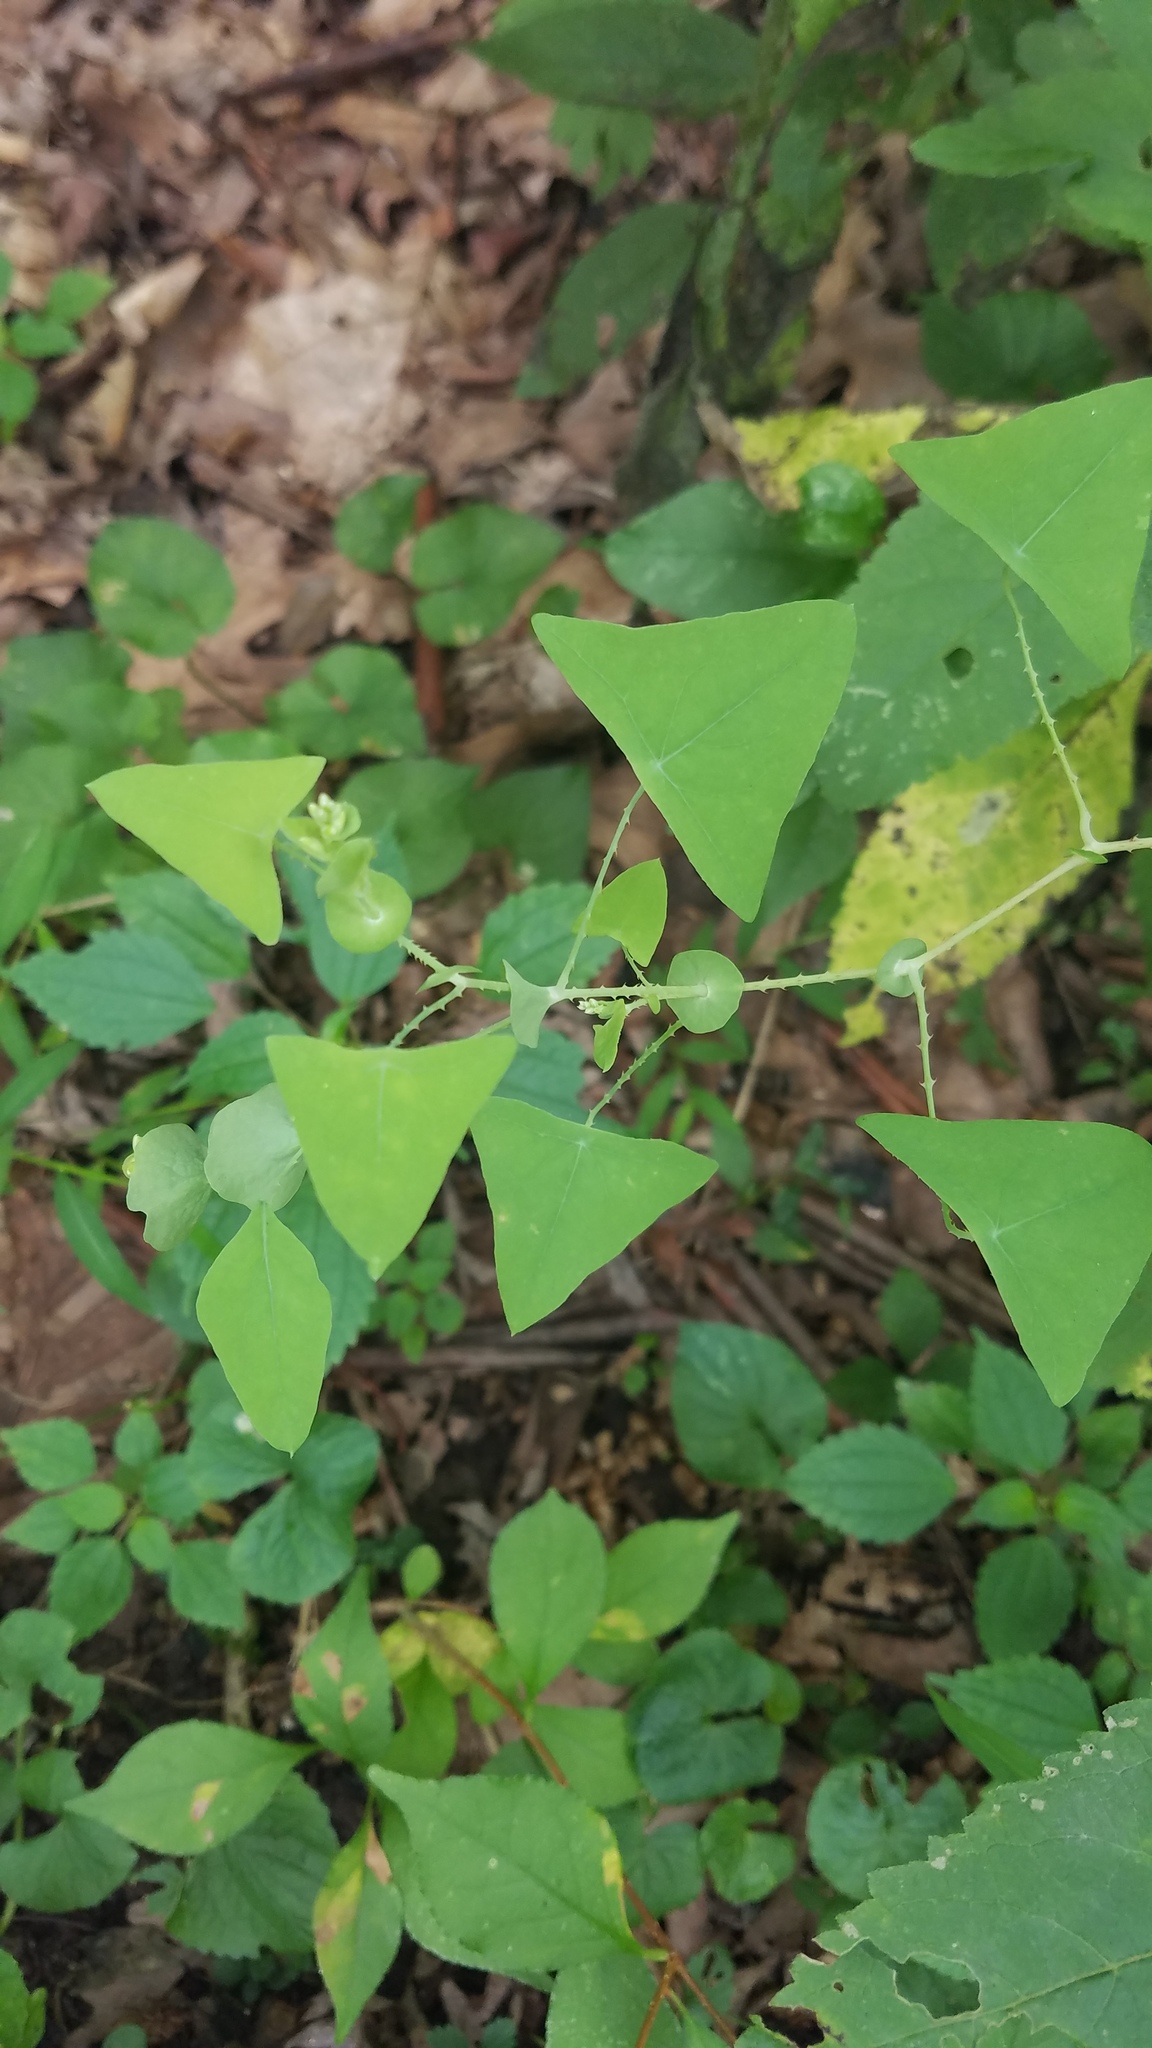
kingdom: Plantae
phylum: Tracheophyta
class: Magnoliopsida
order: Caryophyllales
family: Polygonaceae
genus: Persicaria
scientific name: Persicaria perfoliata
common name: Asiatic tearthumb
